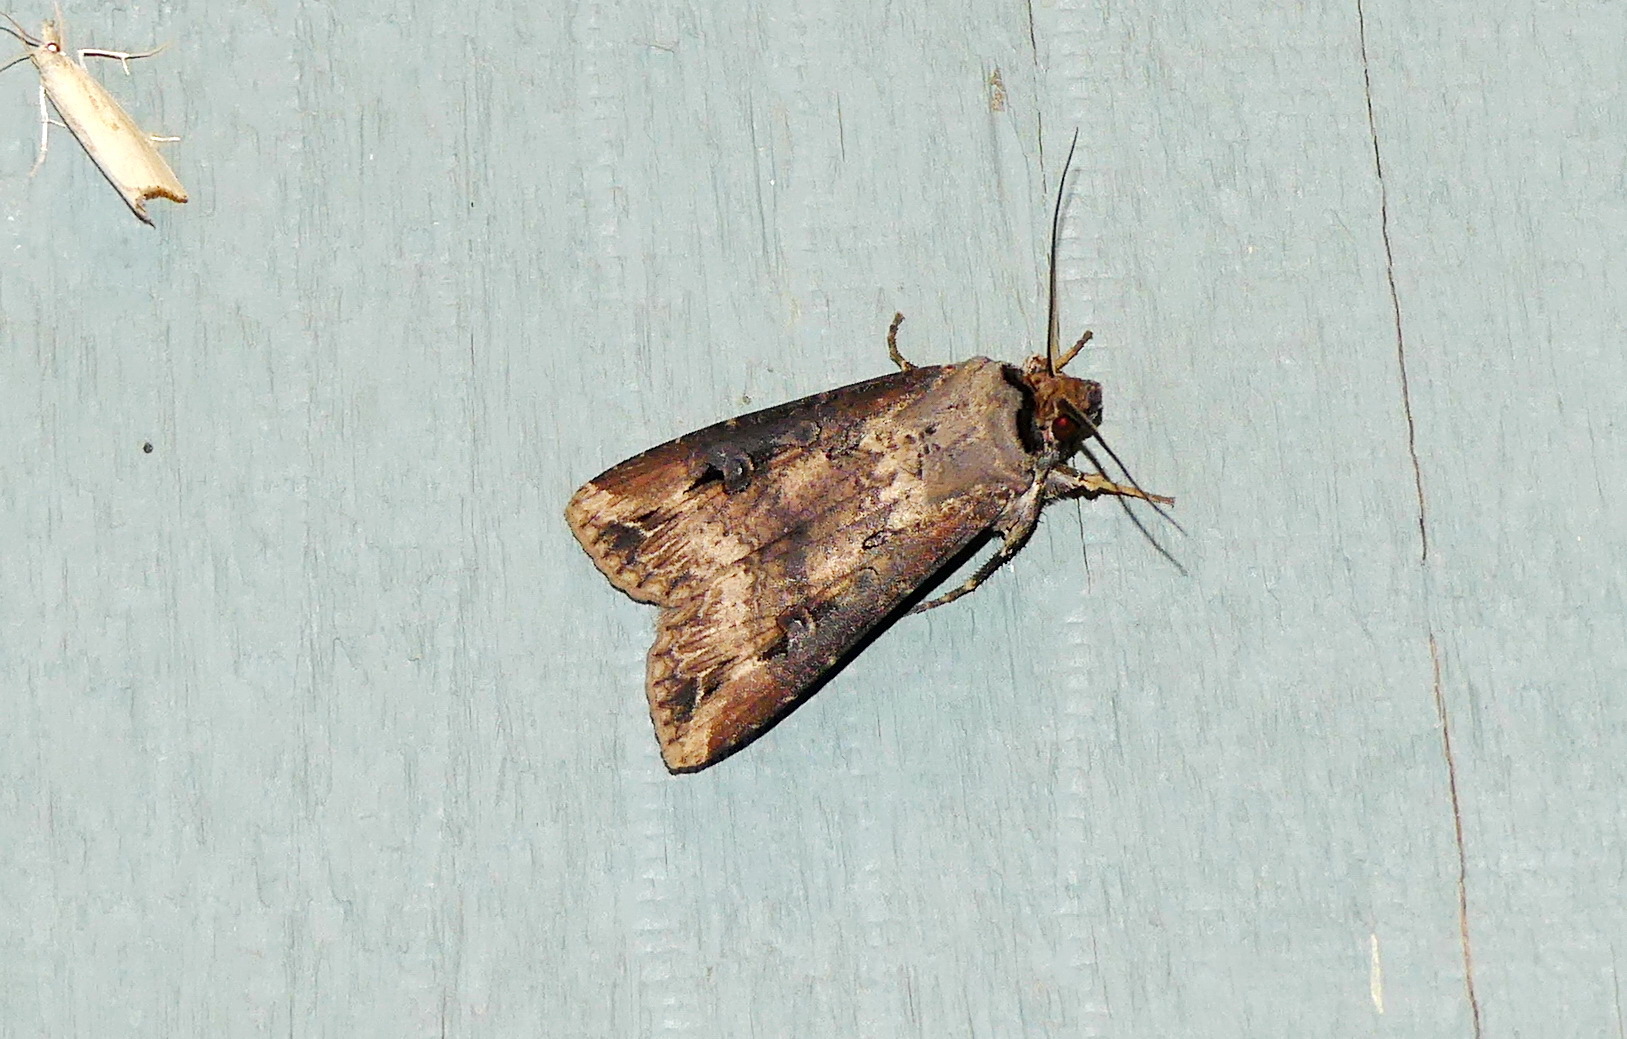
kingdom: Animalia
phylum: Arthropoda
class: Insecta
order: Lepidoptera
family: Noctuidae
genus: Agrotis
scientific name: Agrotis ipsilon
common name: Dark sword-grass
